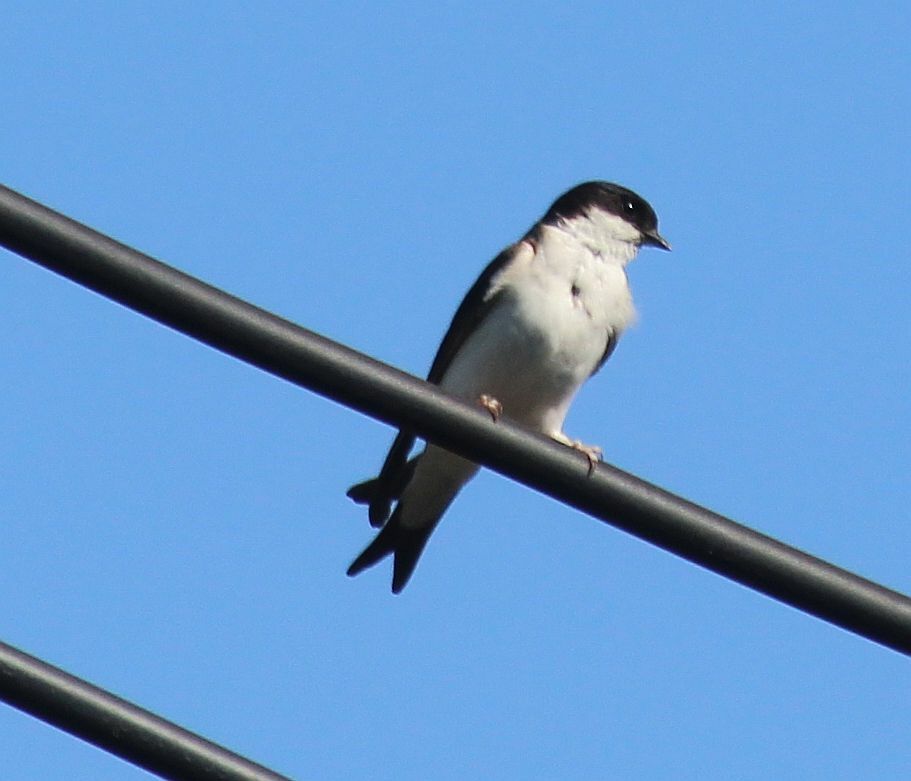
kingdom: Animalia
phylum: Chordata
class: Aves
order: Passeriformes
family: Hirundinidae
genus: Delichon
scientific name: Delichon urbicum
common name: Common house martin
